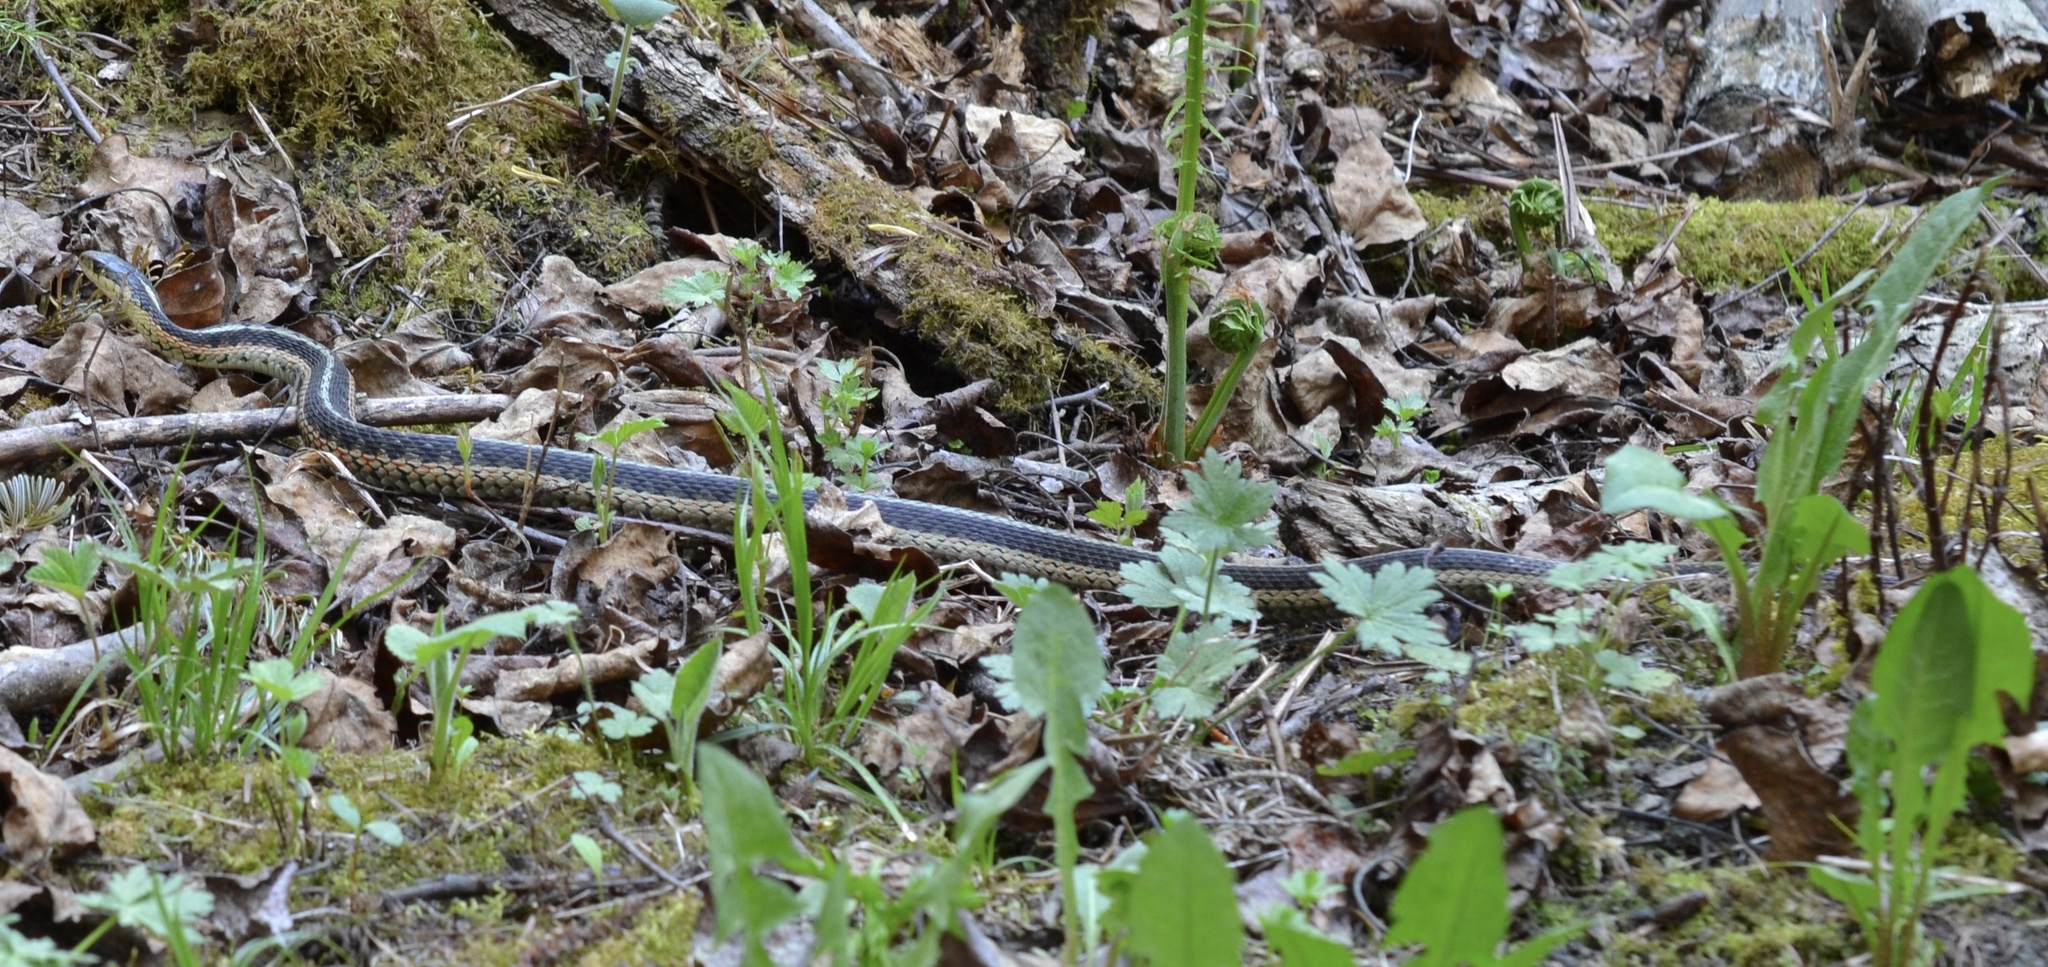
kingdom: Animalia
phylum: Chordata
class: Squamata
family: Colubridae
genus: Thamnophis
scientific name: Thamnophis sirtalis
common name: Common garter snake
